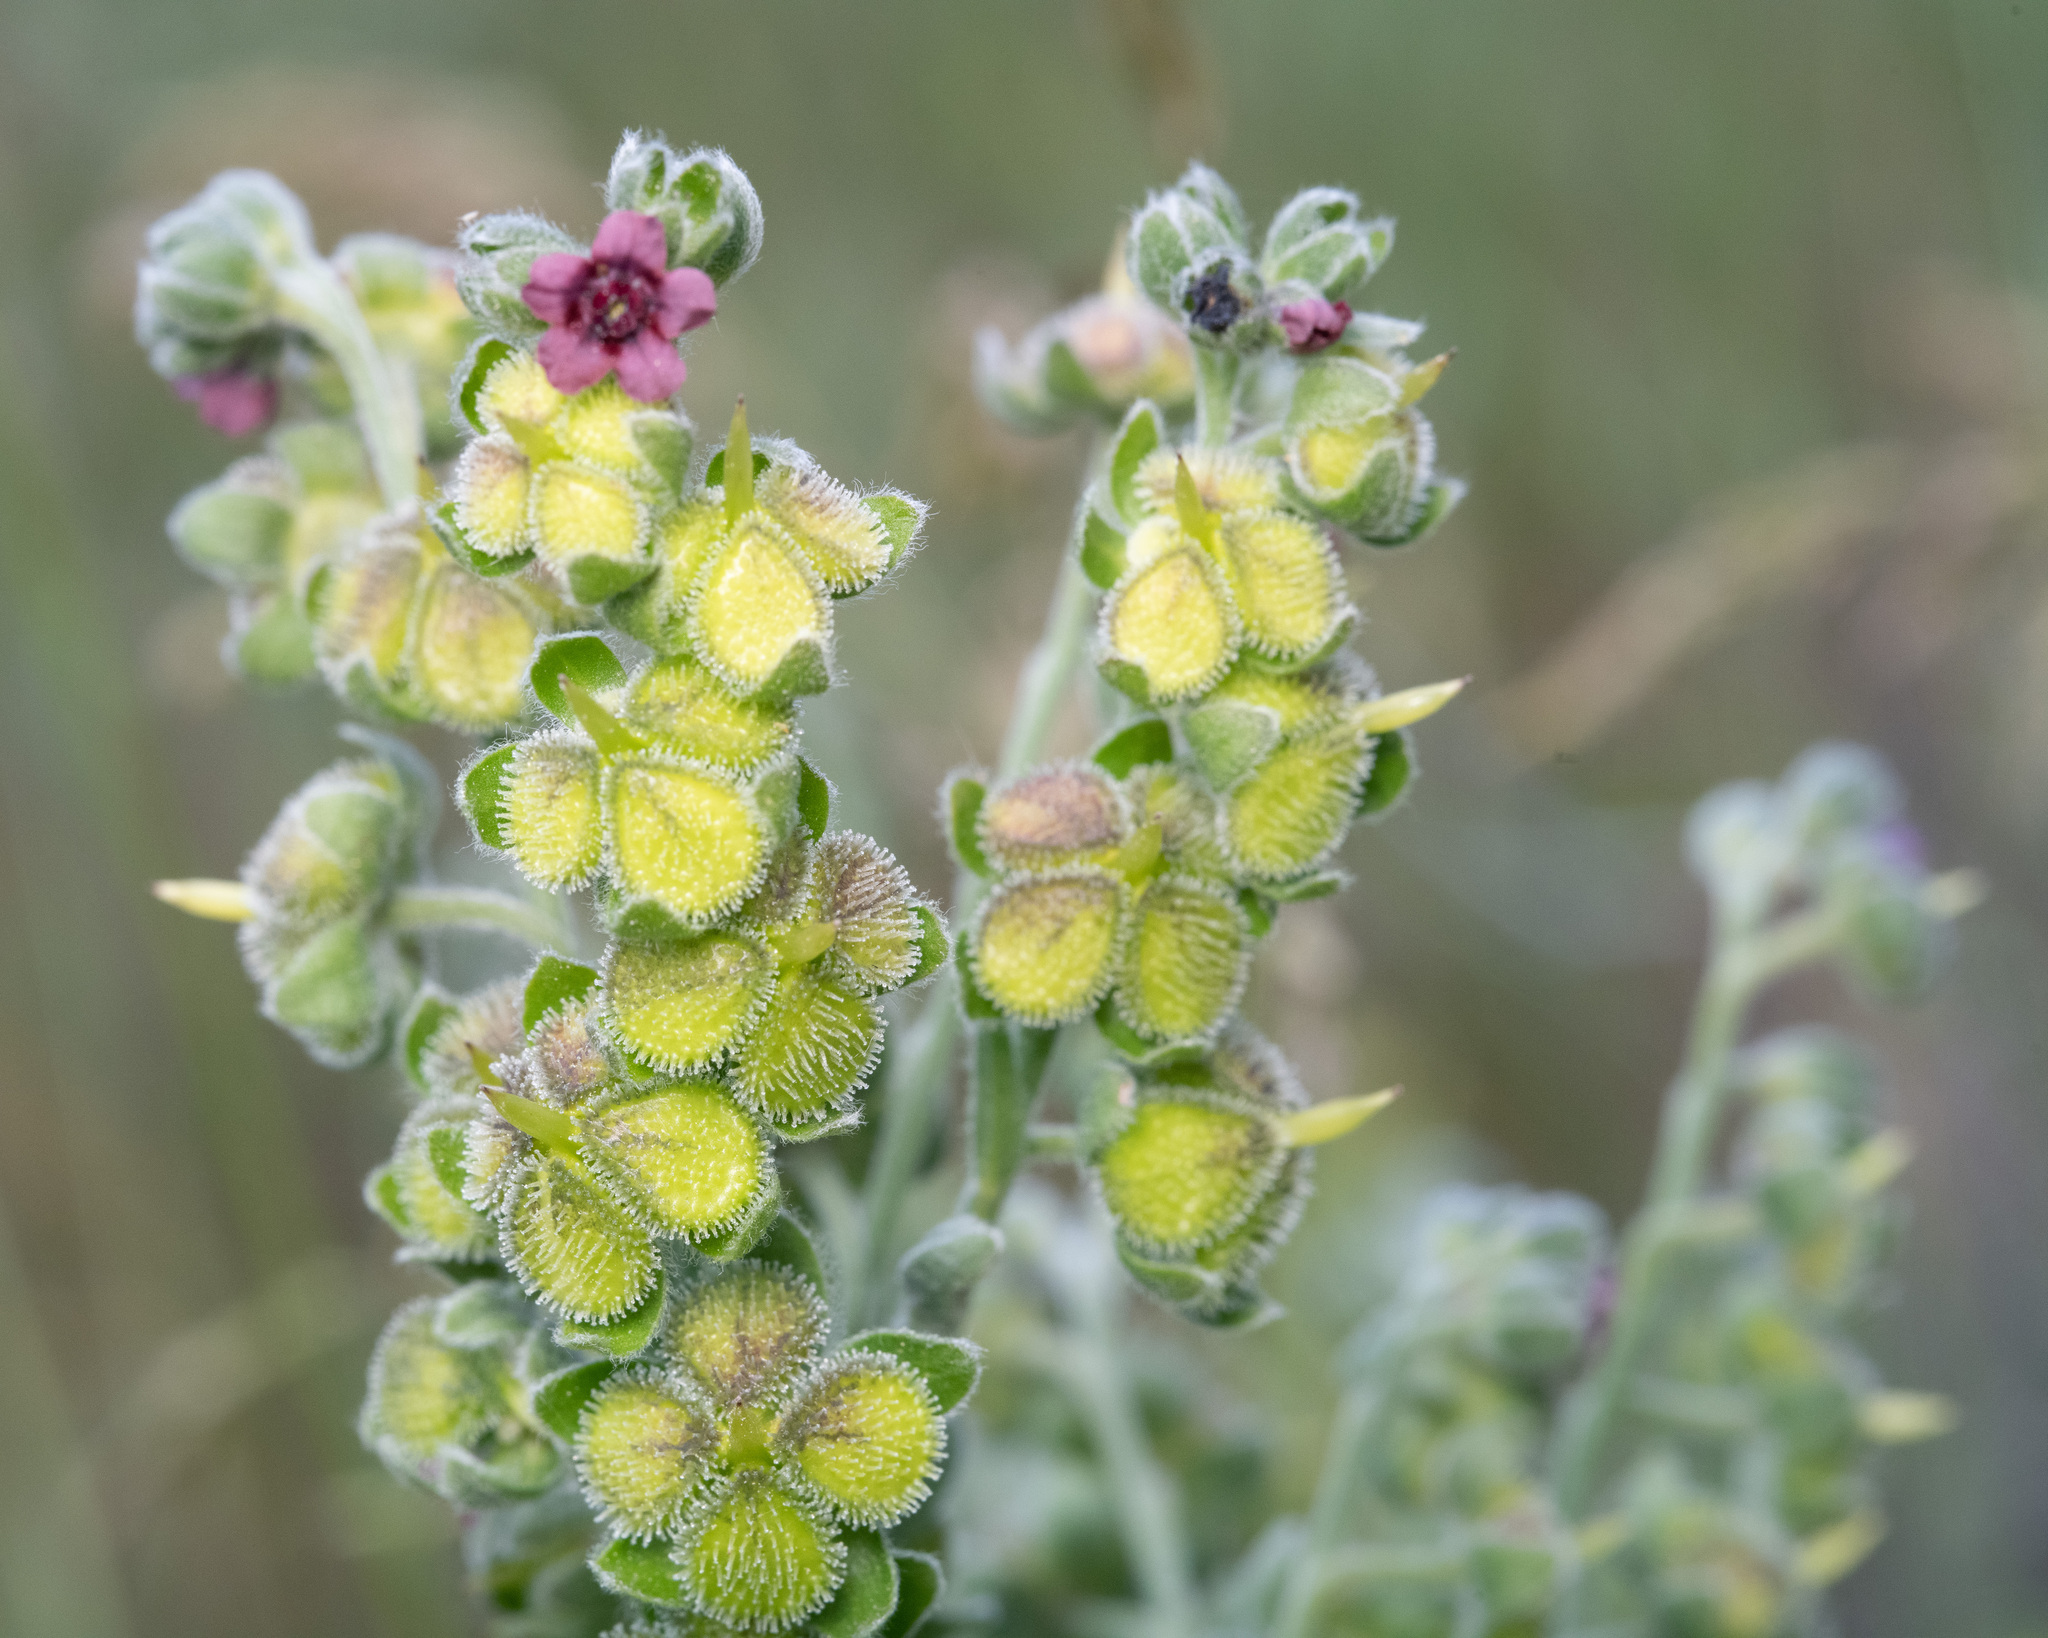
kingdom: Plantae
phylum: Tracheophyta
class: Magnoliopsida
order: Boraginales
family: Boraginaceae
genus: Cynoglossum
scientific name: Cynoglossum officinale
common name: Hound's-tongue
